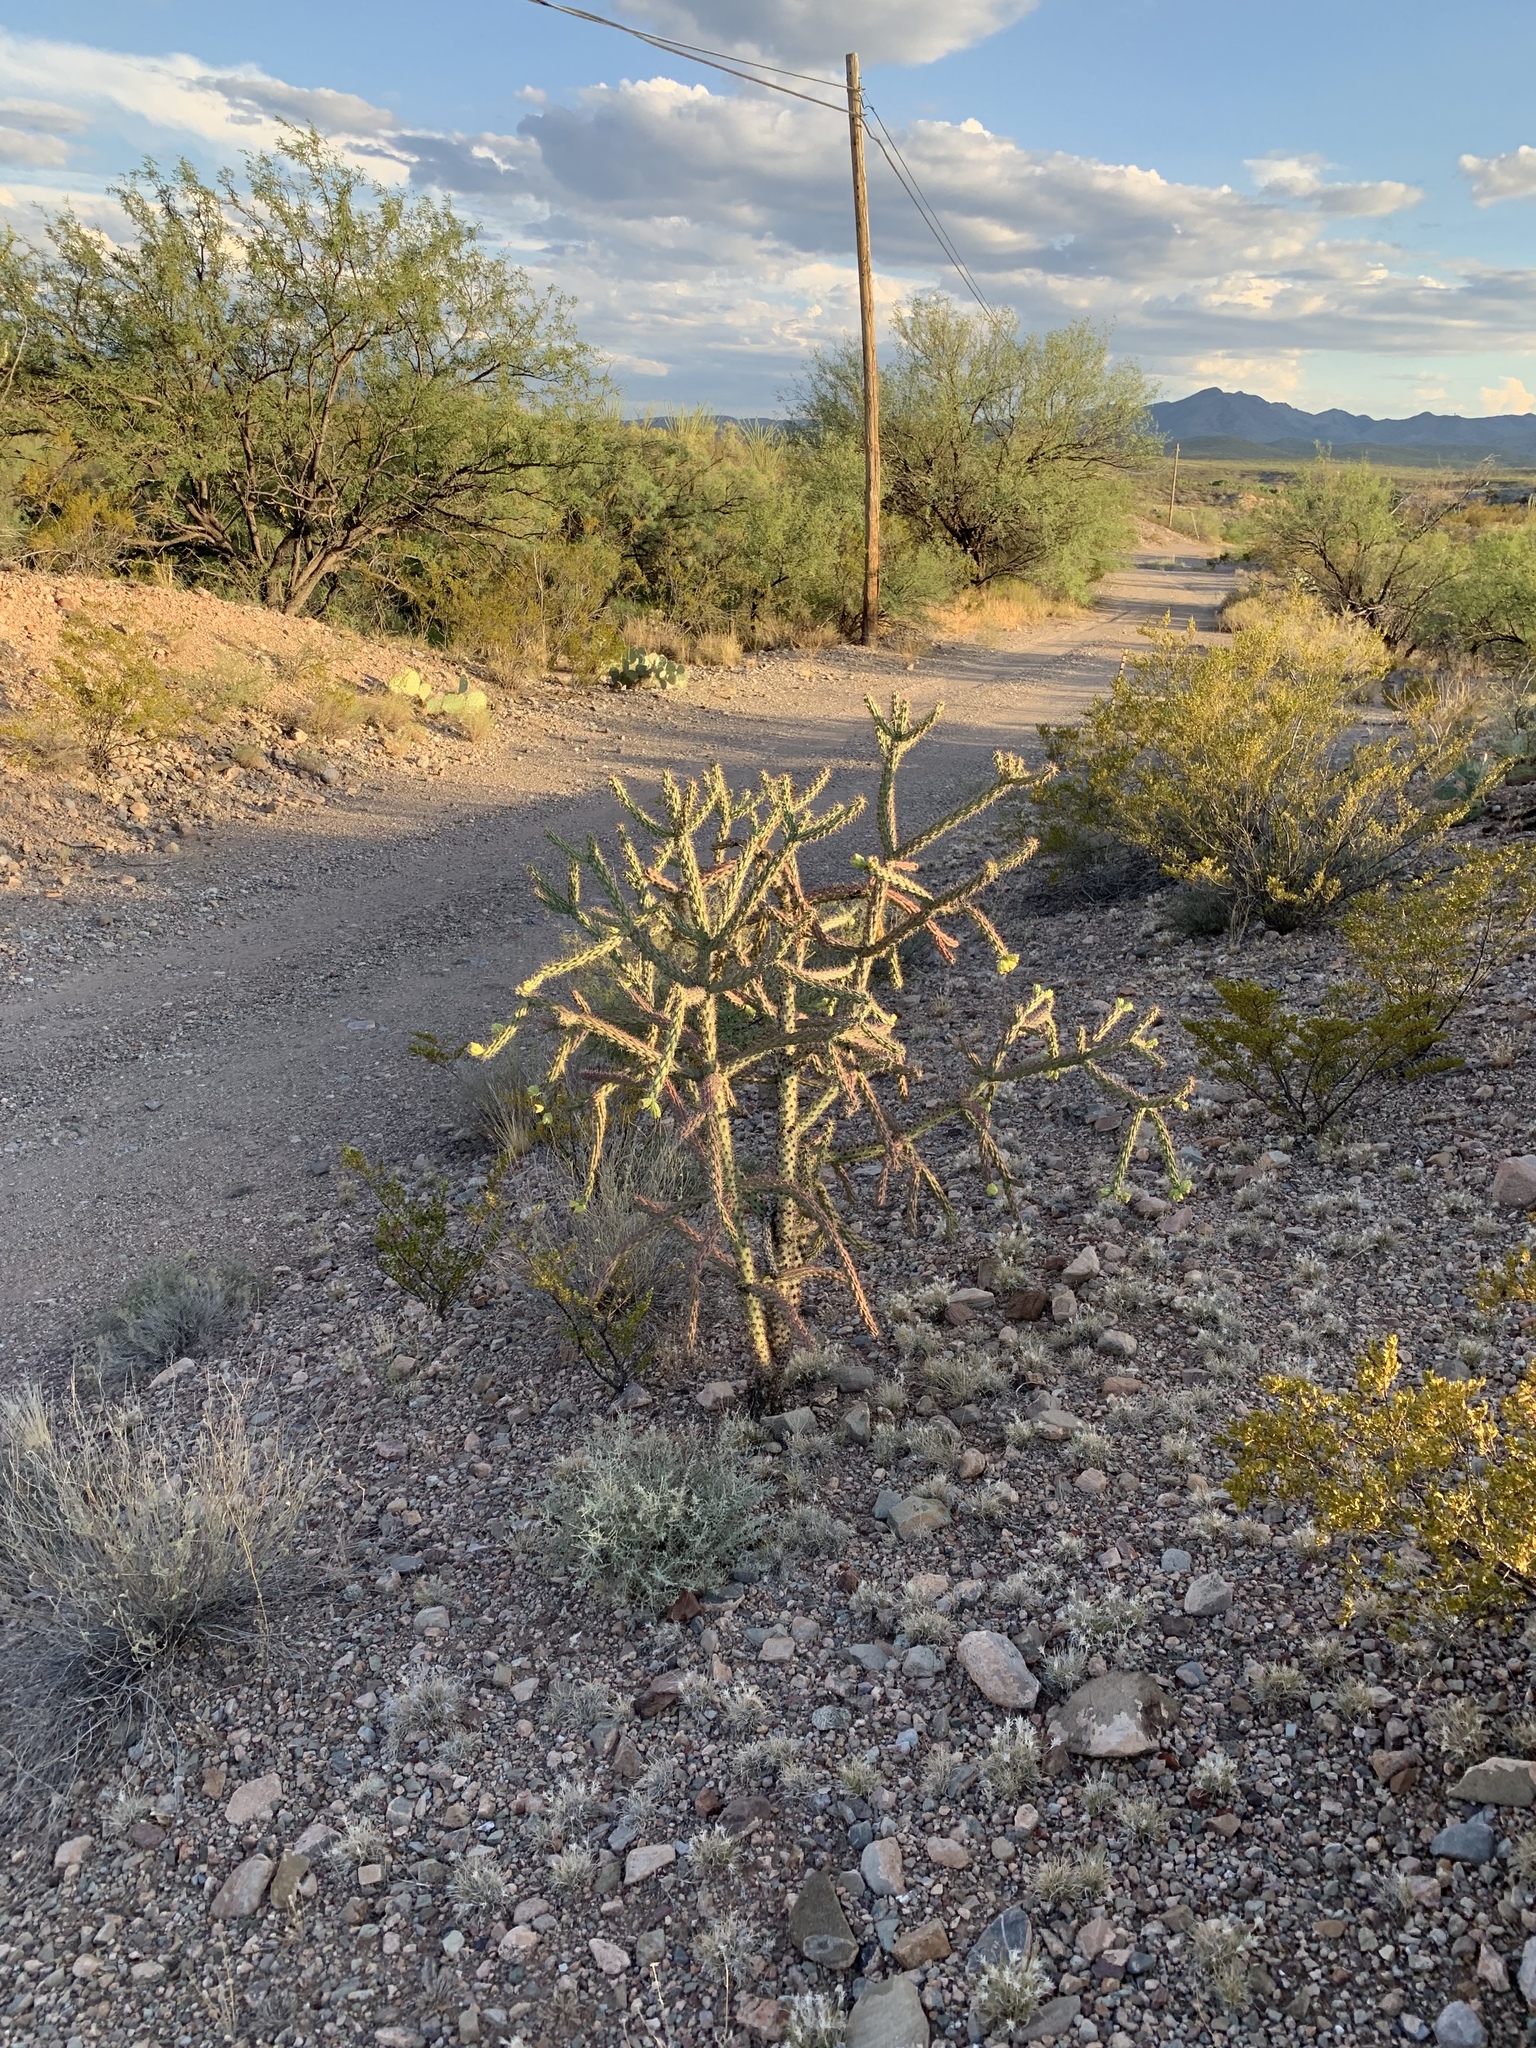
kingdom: Plantae
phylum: Tracheophyta
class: Magnoliopsida
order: Caryophyllales
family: Cactaceae
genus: Cylindropuntia
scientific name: Cylindropuntia thurberi
